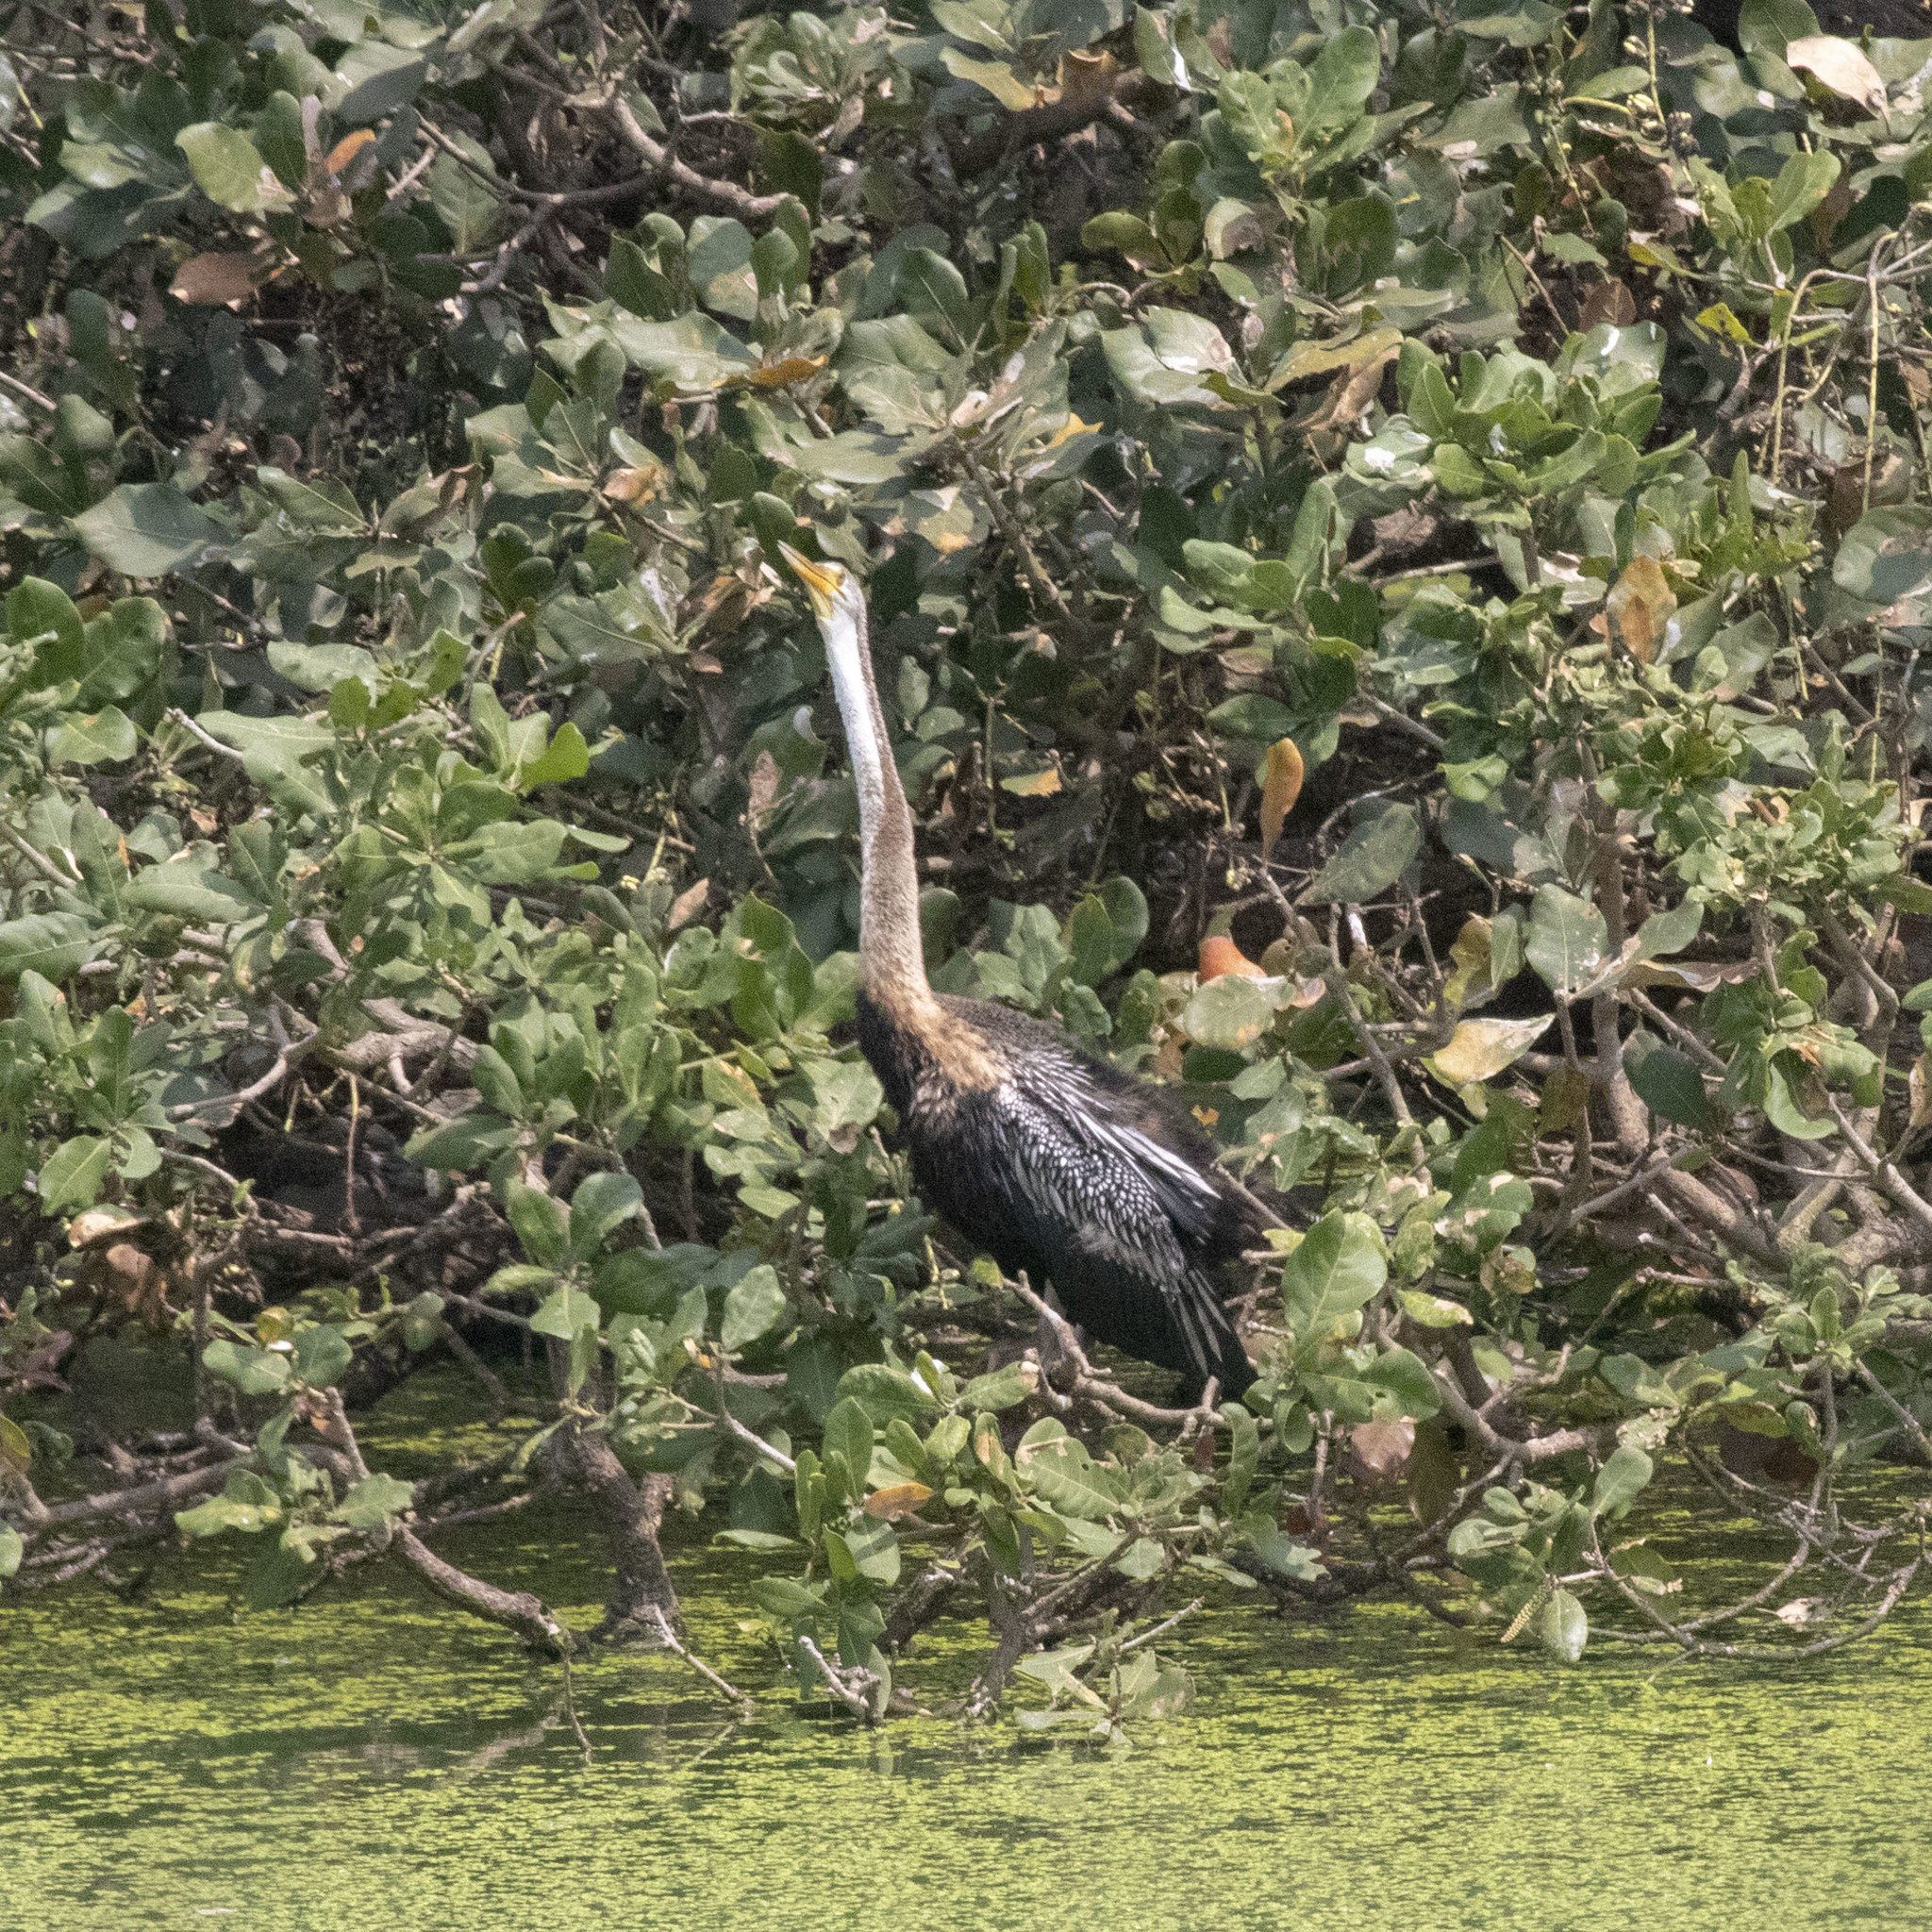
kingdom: Animalia
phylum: Chordata
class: Aves
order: Suliformes
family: Anhingidae
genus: Anhinga
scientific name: Anhinga melanogaster
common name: Oriental darter
